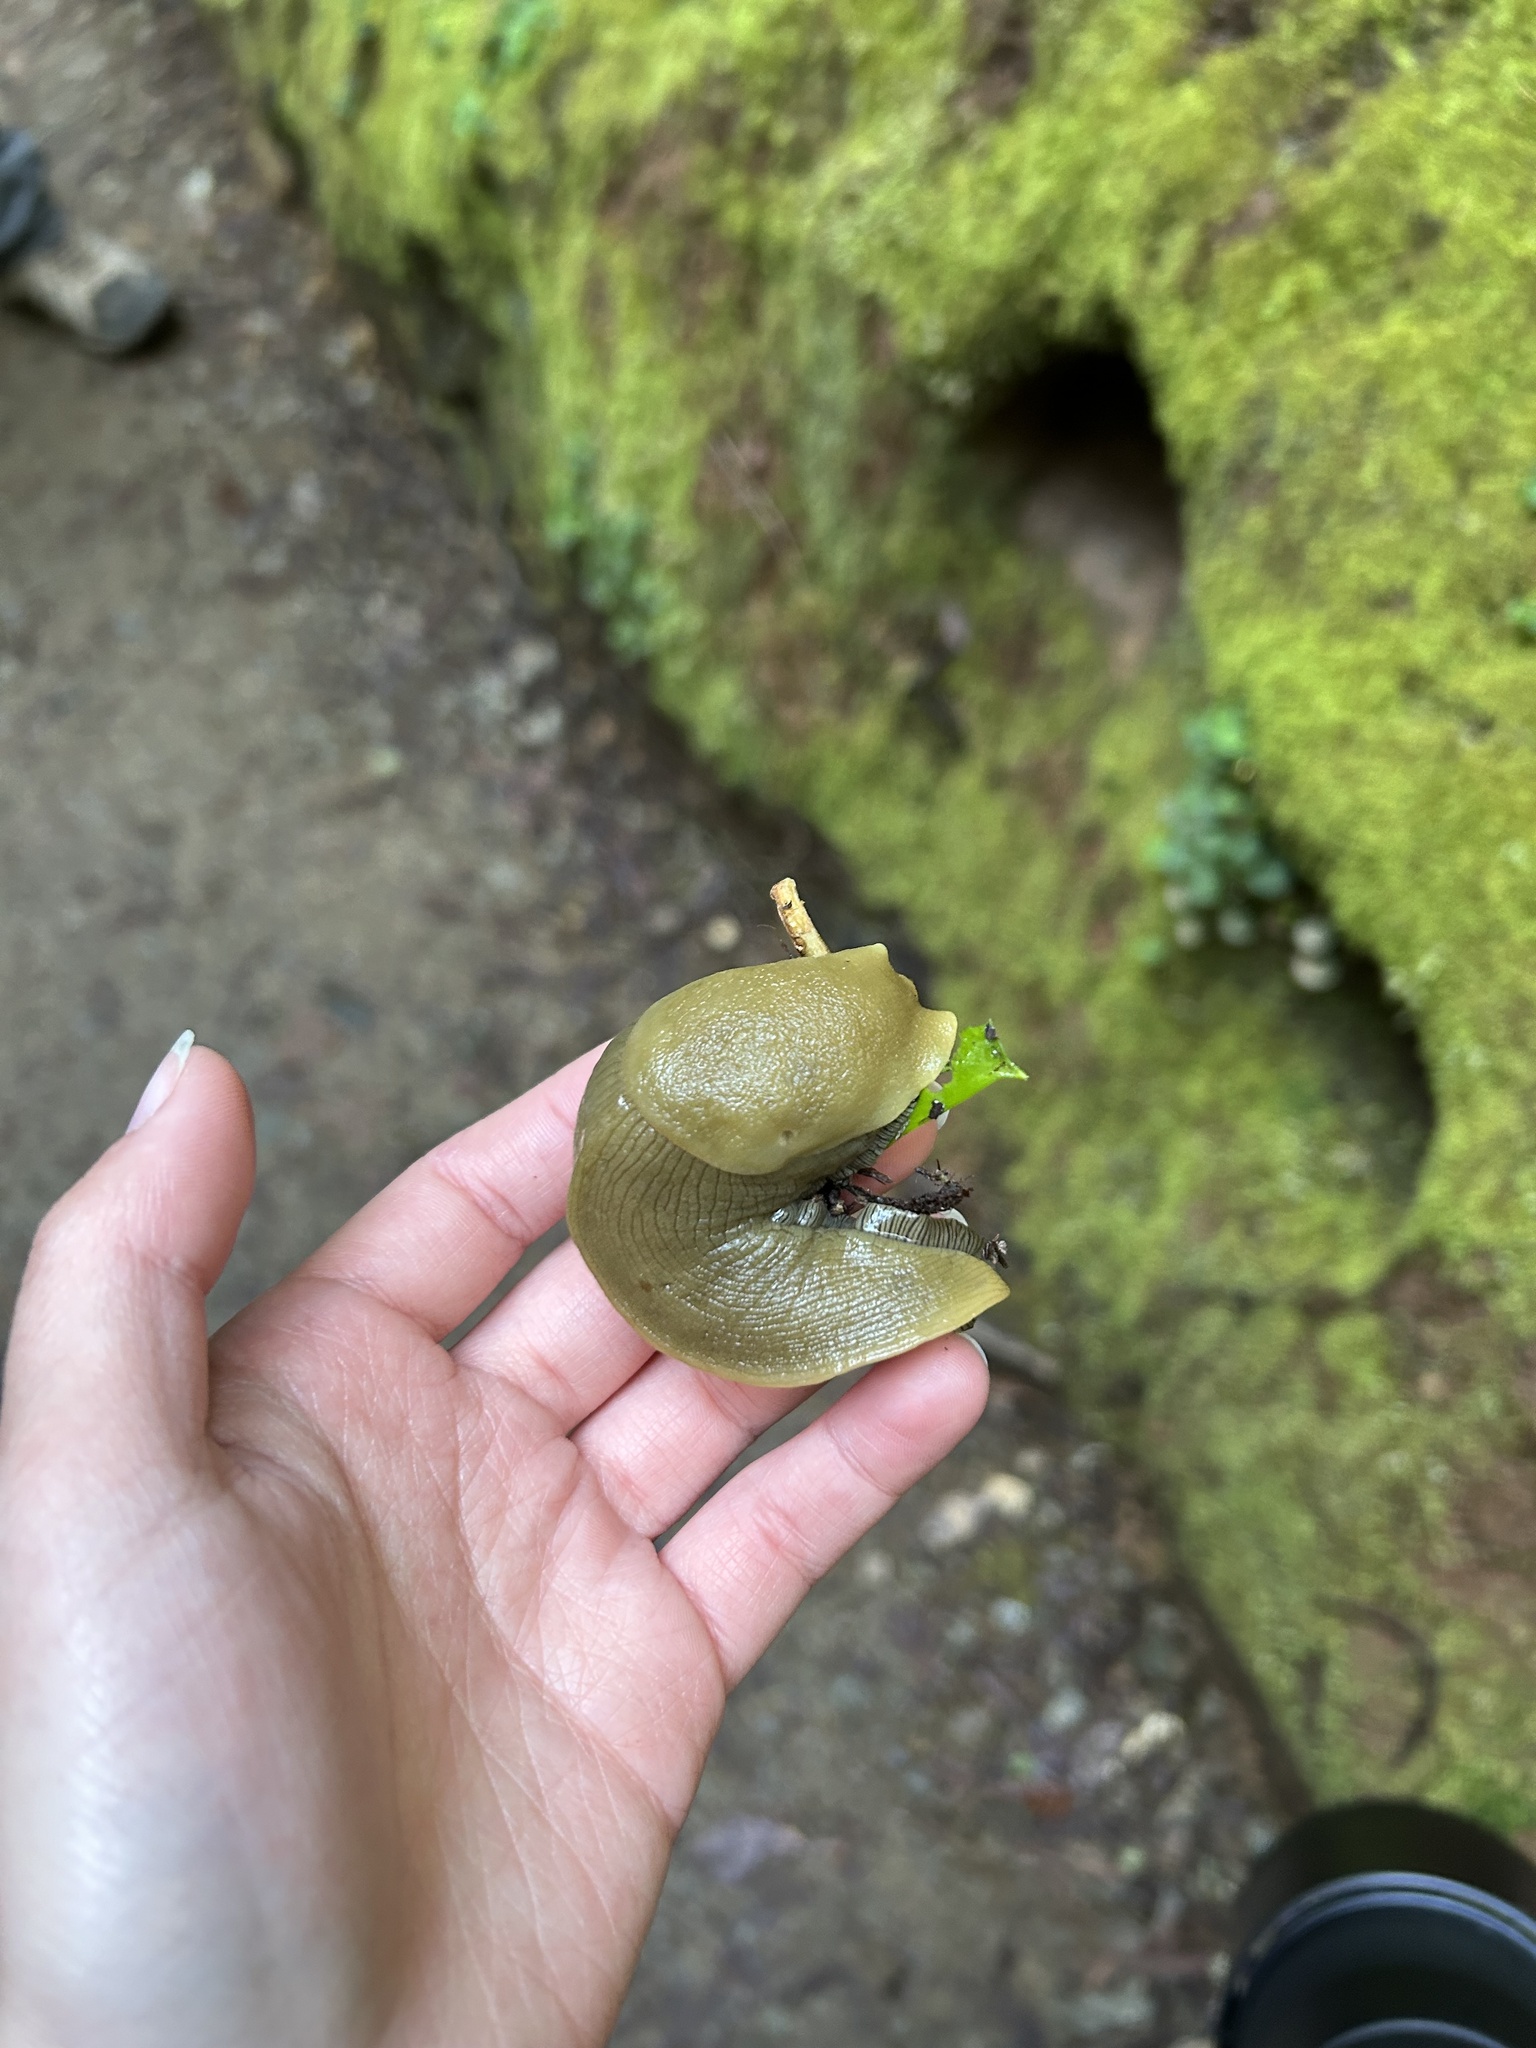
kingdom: Animalia
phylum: Mollusca
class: Gastropoda
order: Stylommatophora
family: Ariolimacidae
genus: Ariolimax
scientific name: Ariolimax buttoni
